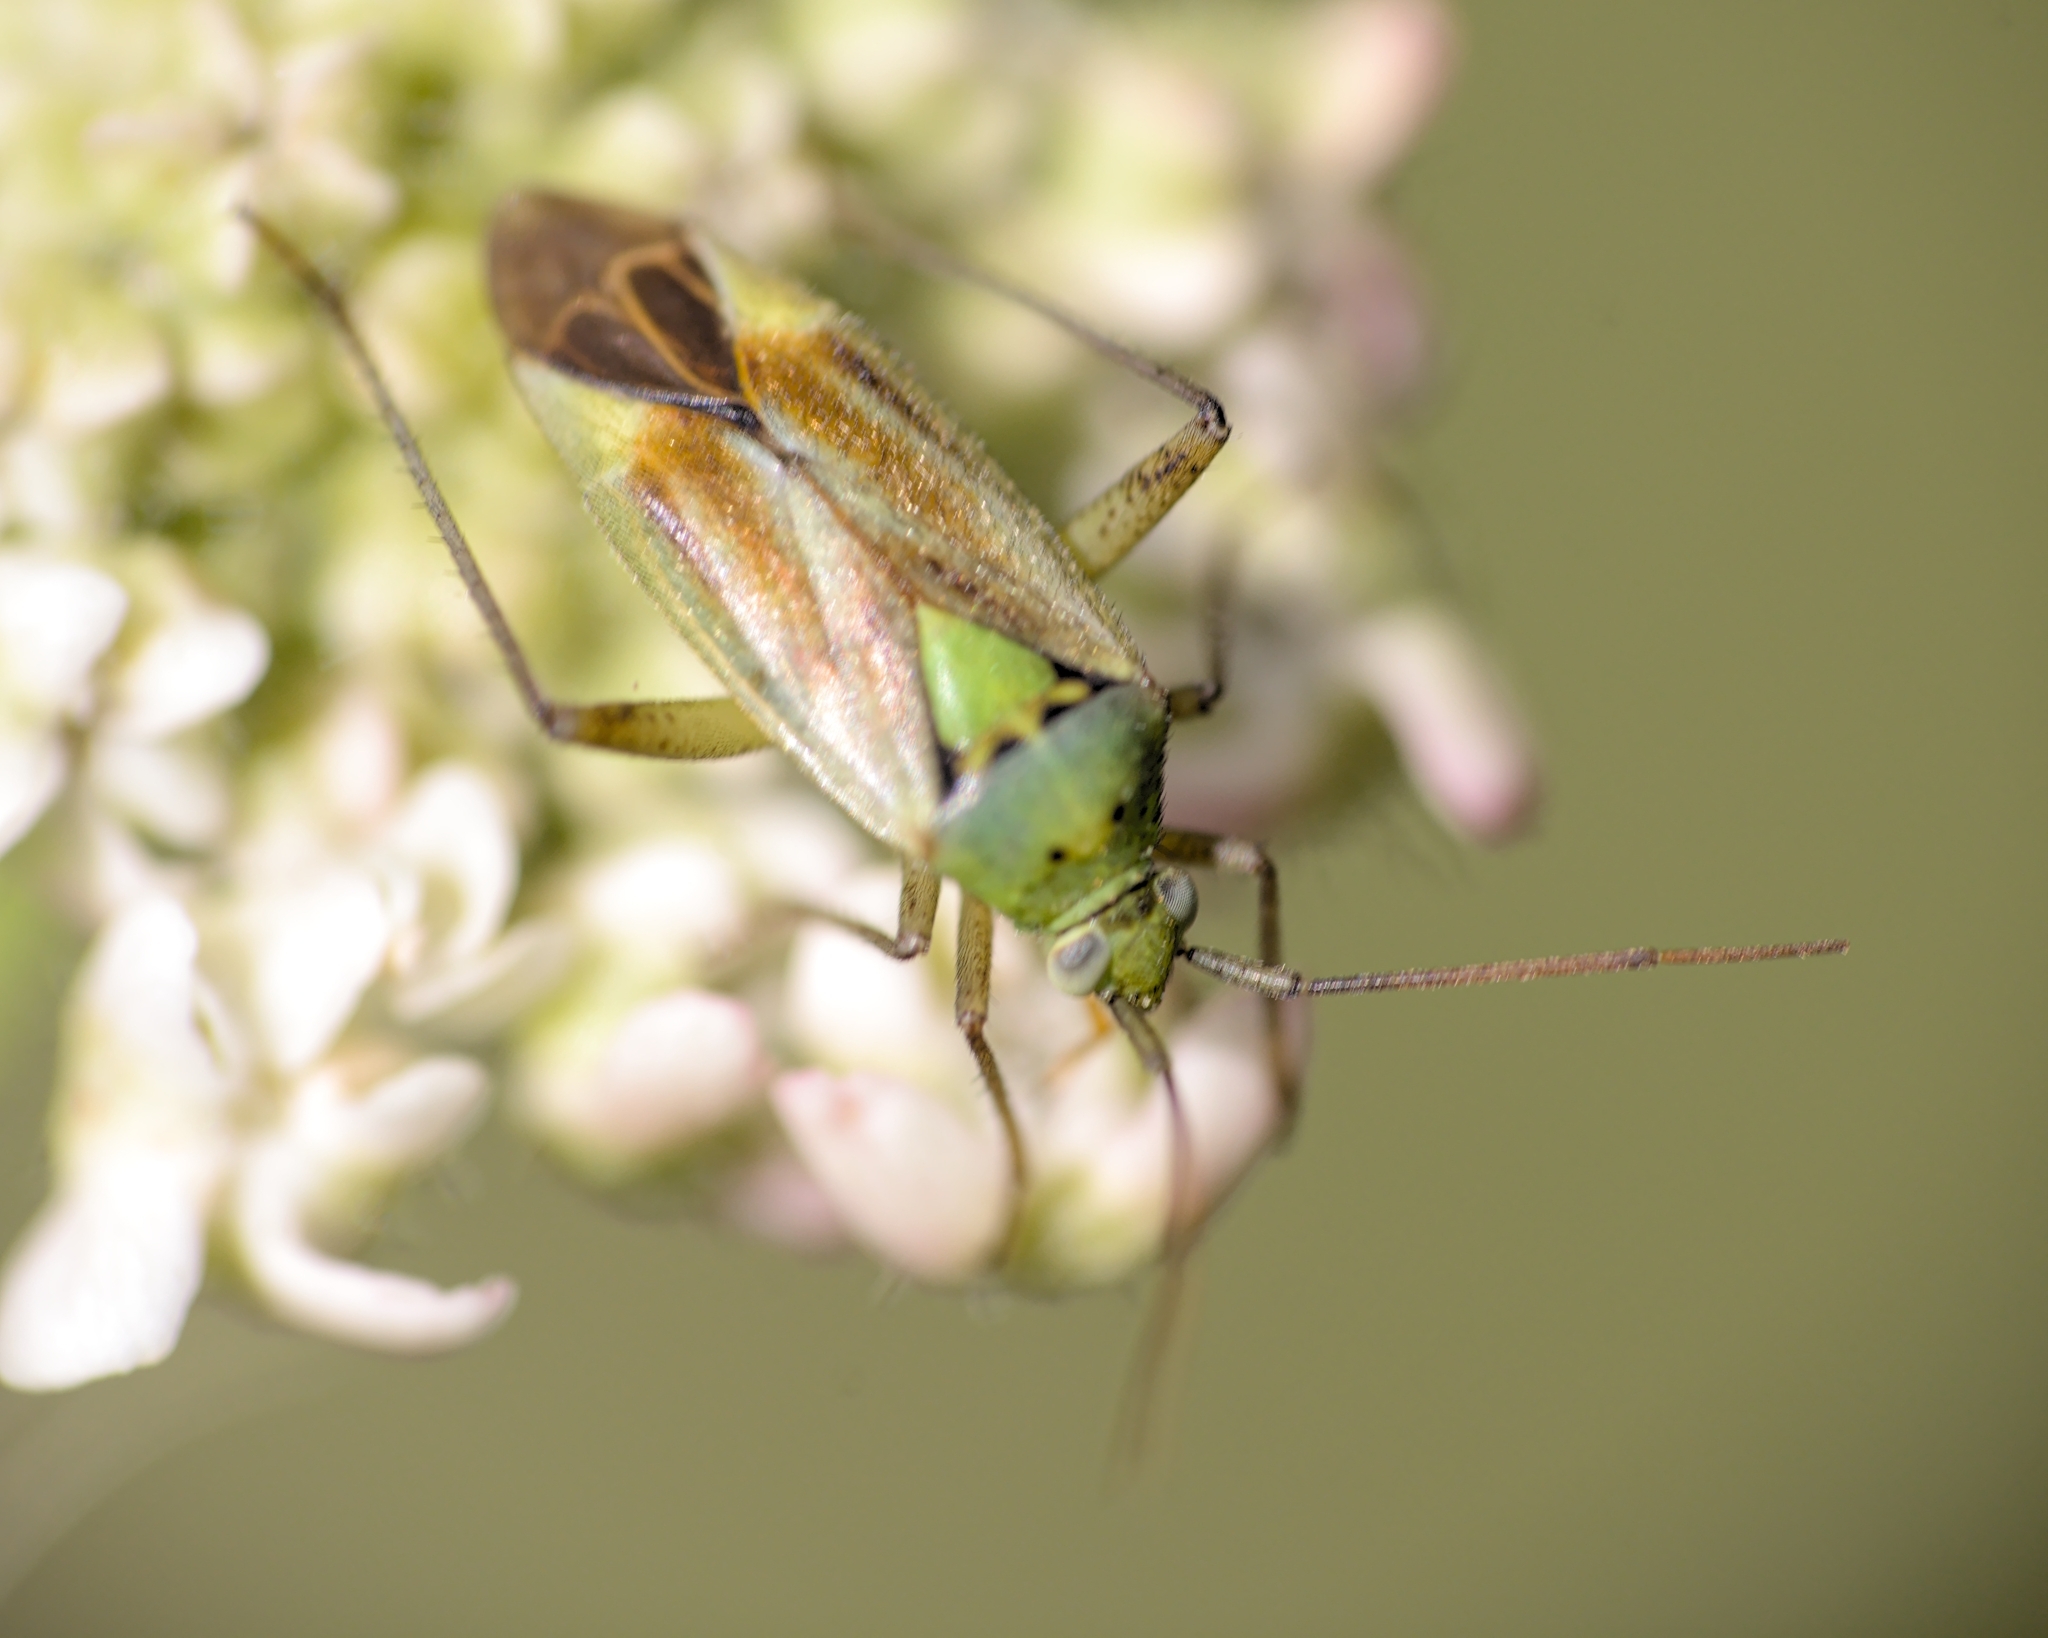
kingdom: Animalia
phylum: Arthropoda
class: Insecta
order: Hemiptera
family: Miridae
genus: Closterotomus
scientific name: Closterotomus norvegicus
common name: Plant bug
